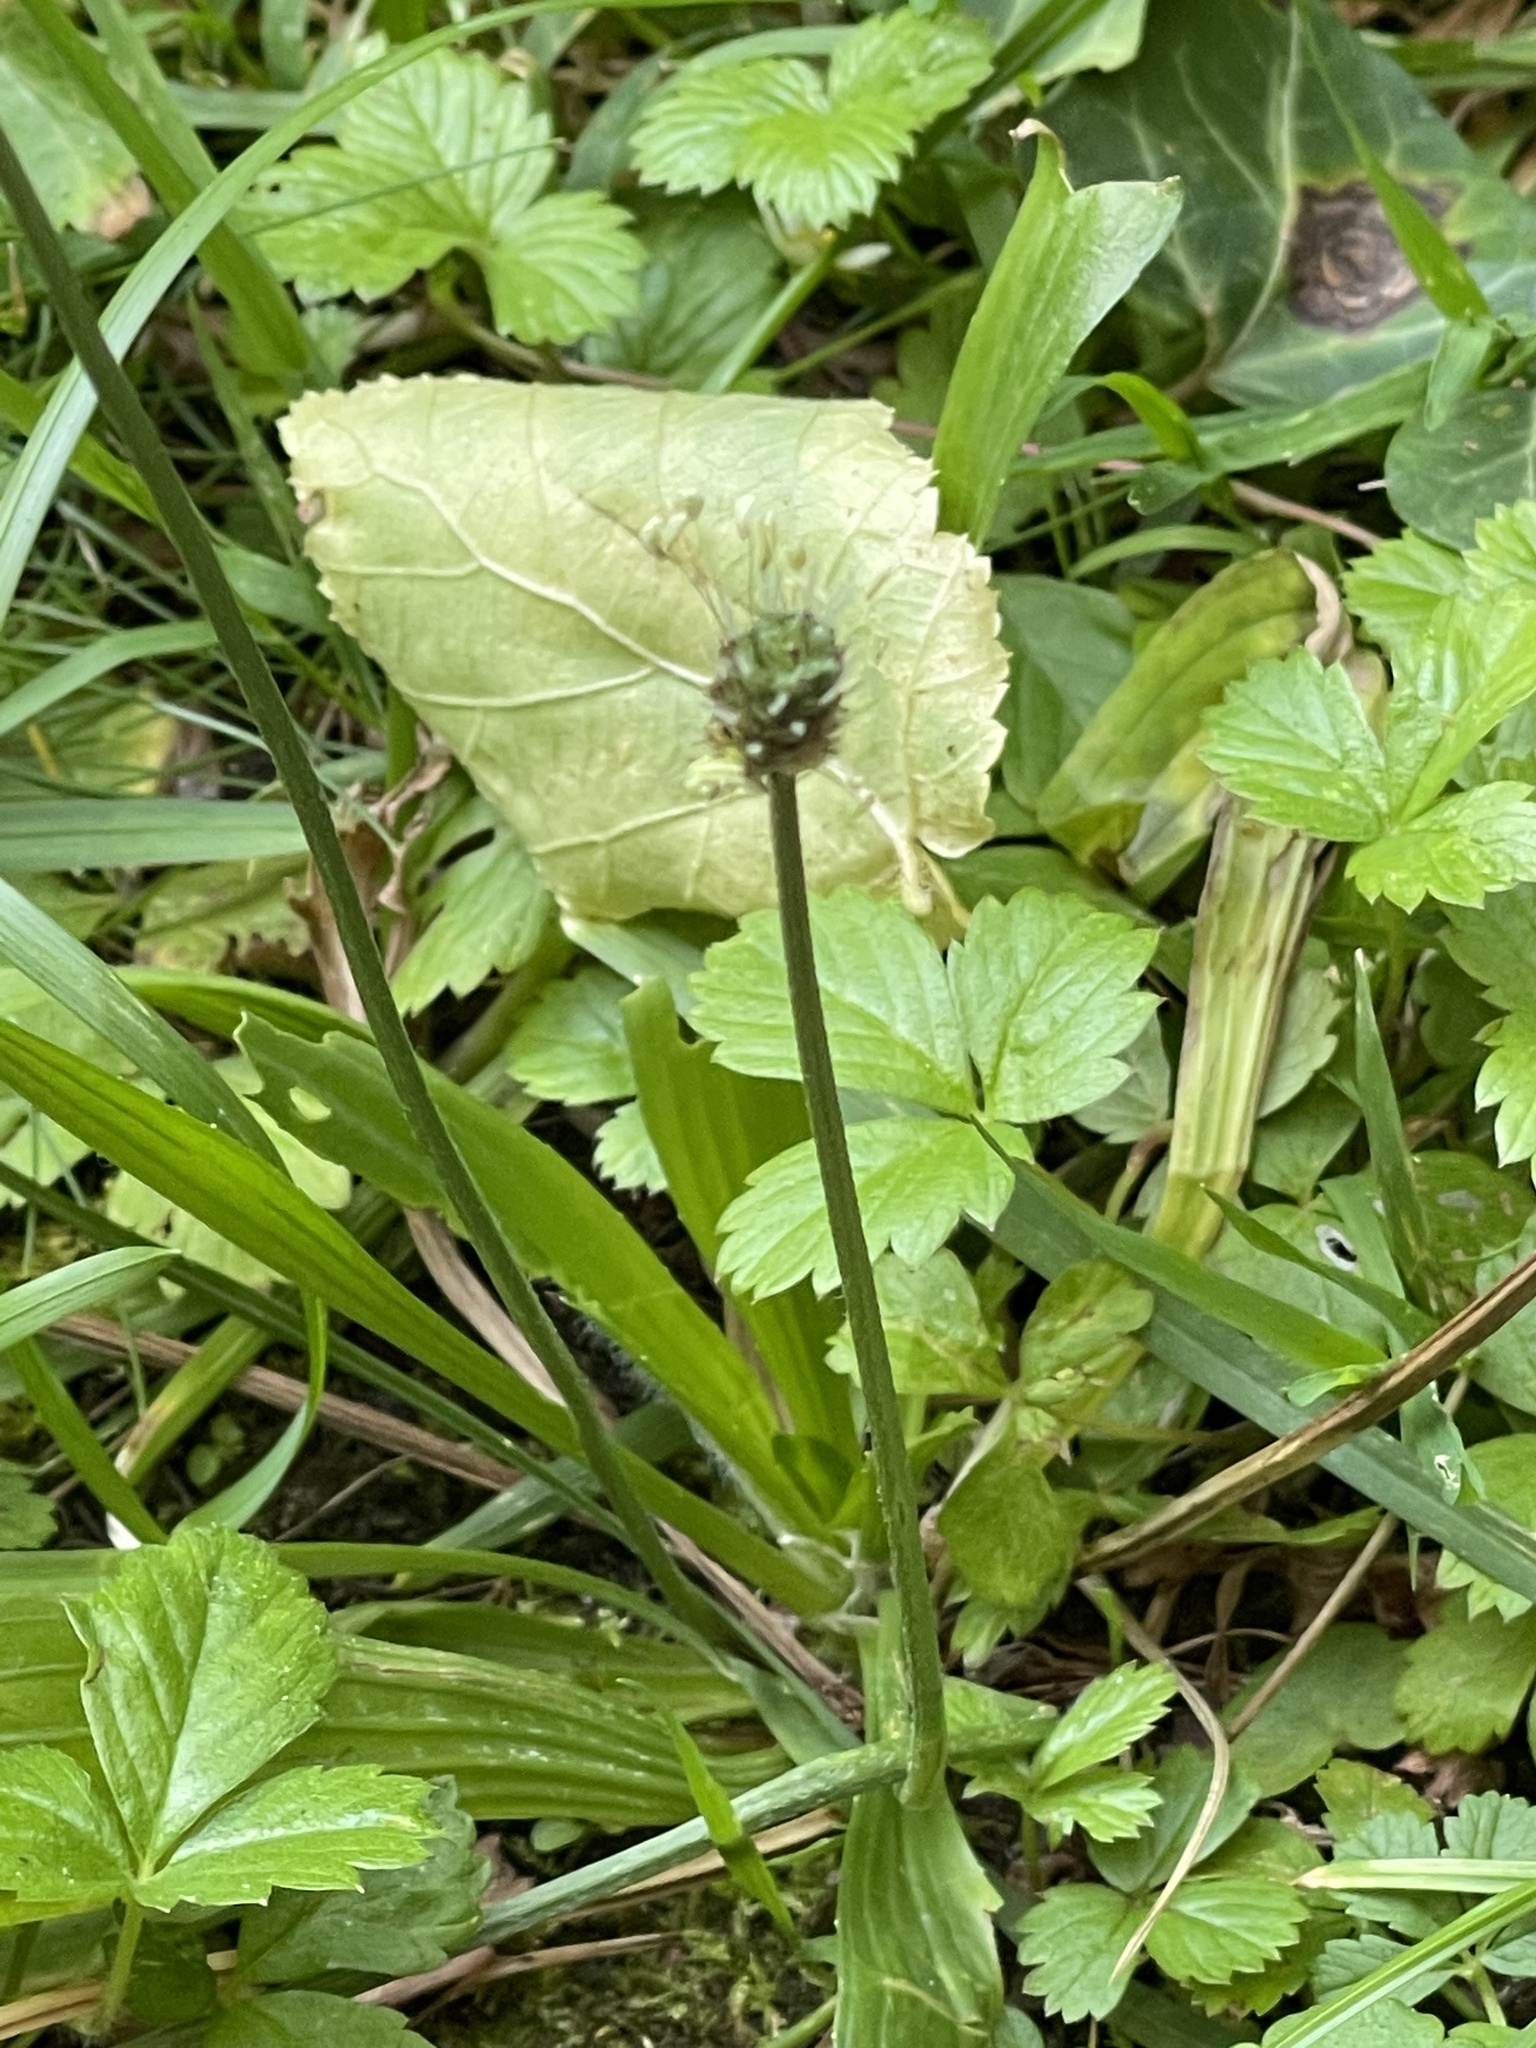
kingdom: Plantae
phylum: Tracheophyta
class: Magnoliopsida
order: Lamiales
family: Plantaginaceae
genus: Plantago
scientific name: Plantago lanceolata
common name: Ribwort plantain
